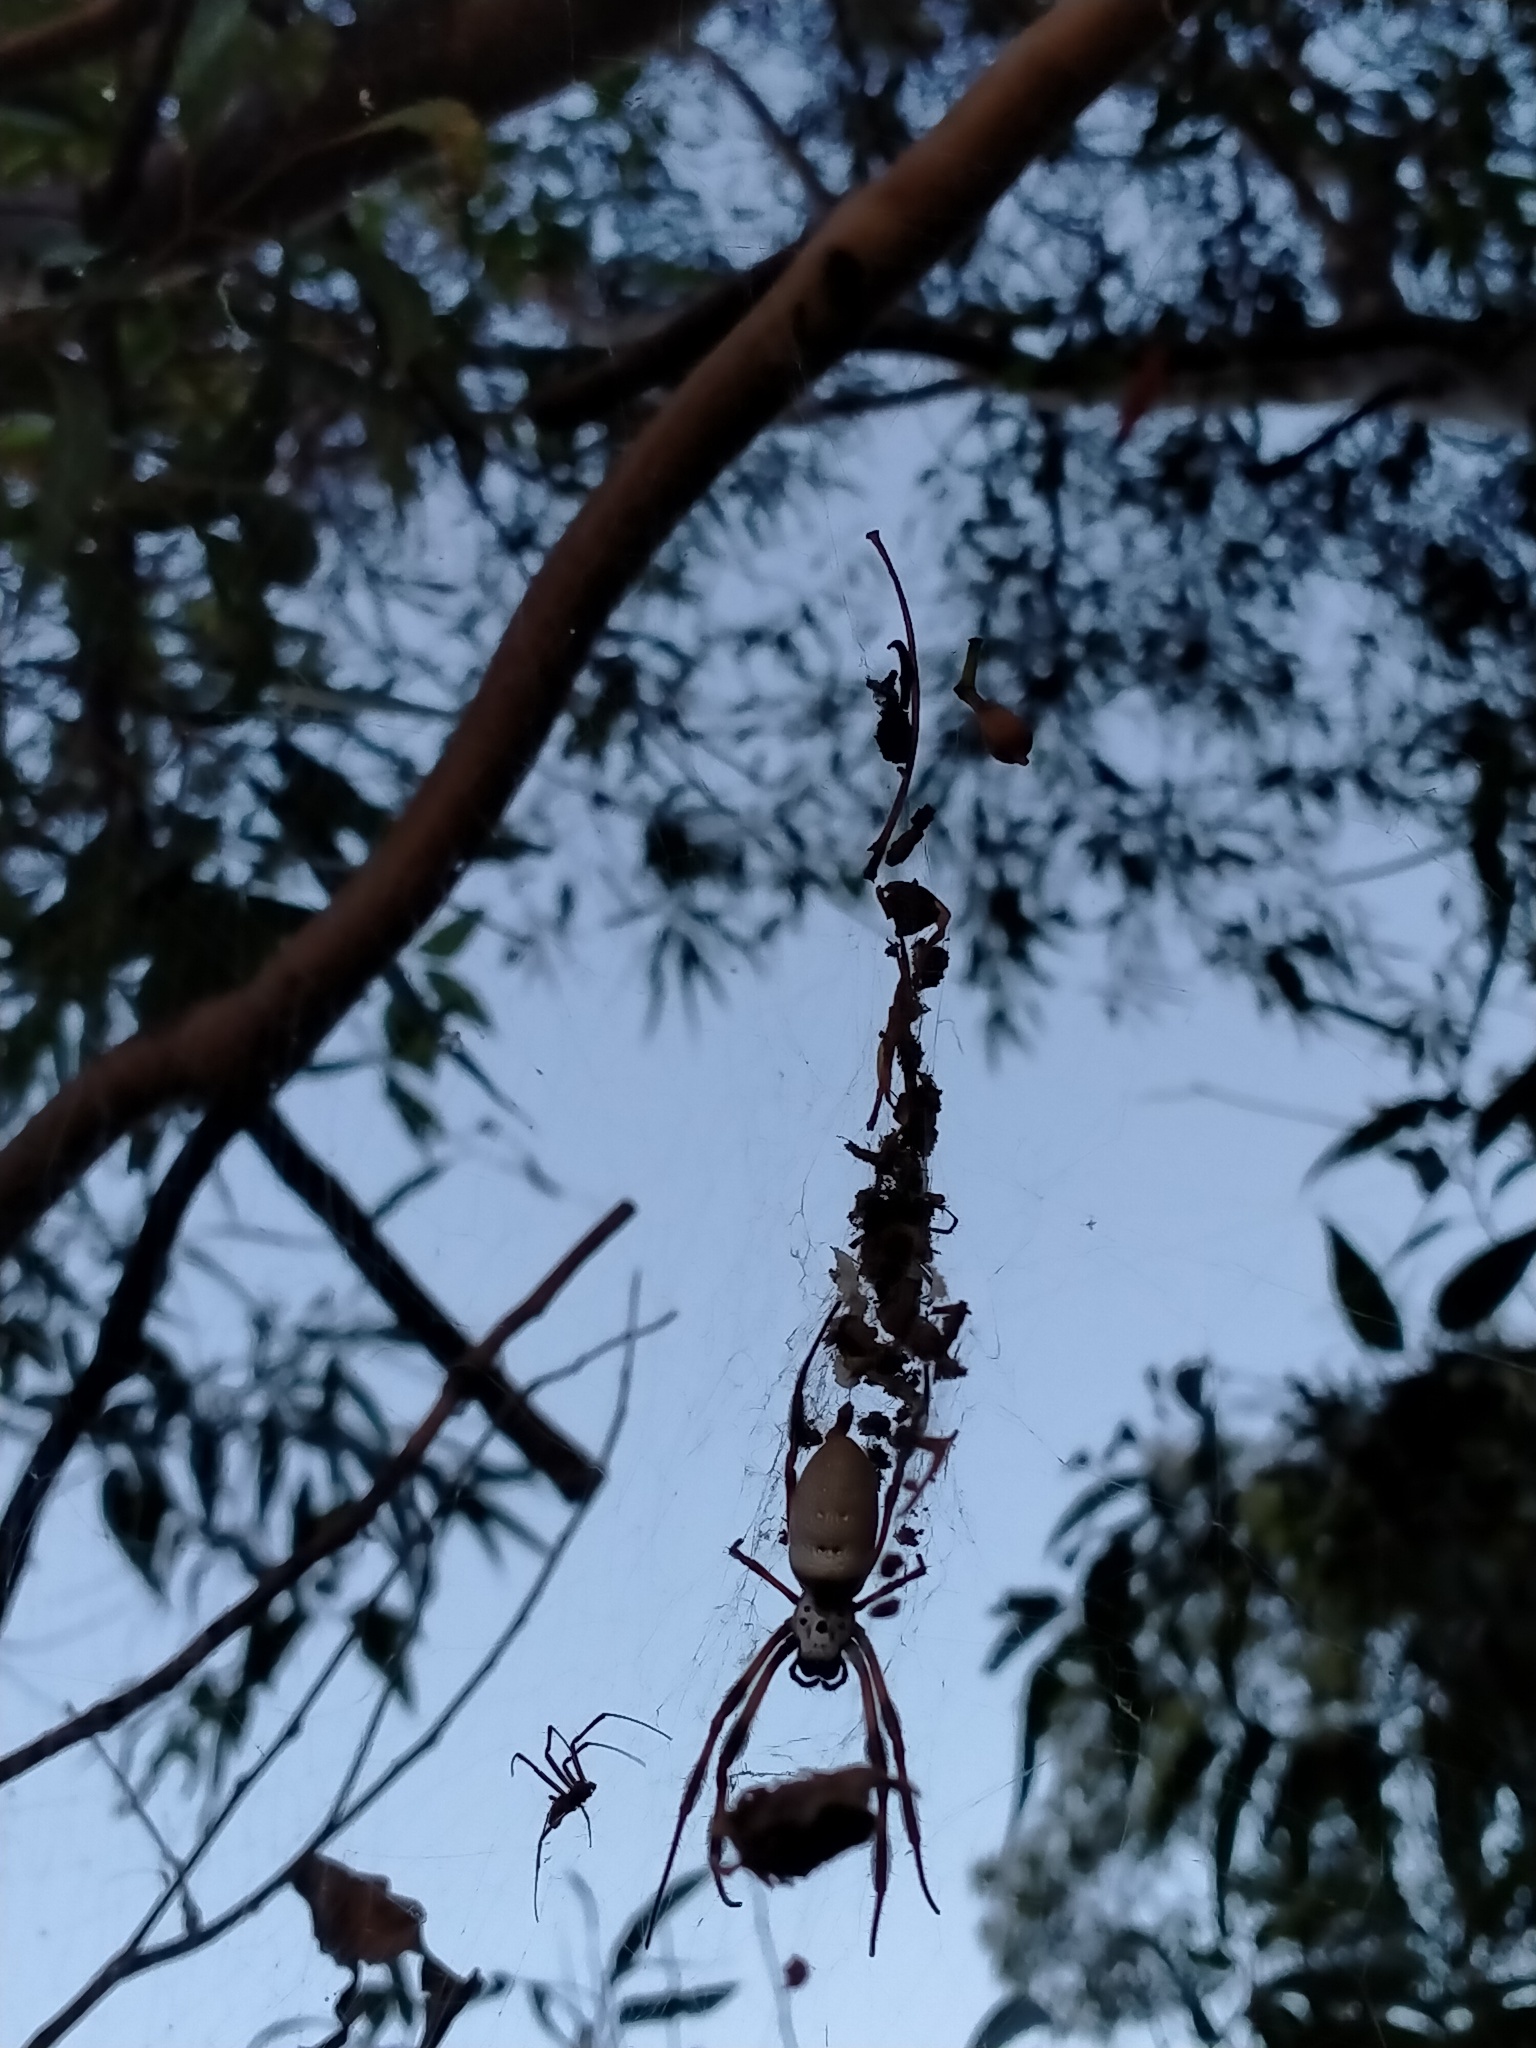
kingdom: Animalia
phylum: Arthropoda
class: Arachnida
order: Araneae
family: Araneidae
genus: Trichonephila
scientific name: Trichonephila edulis
